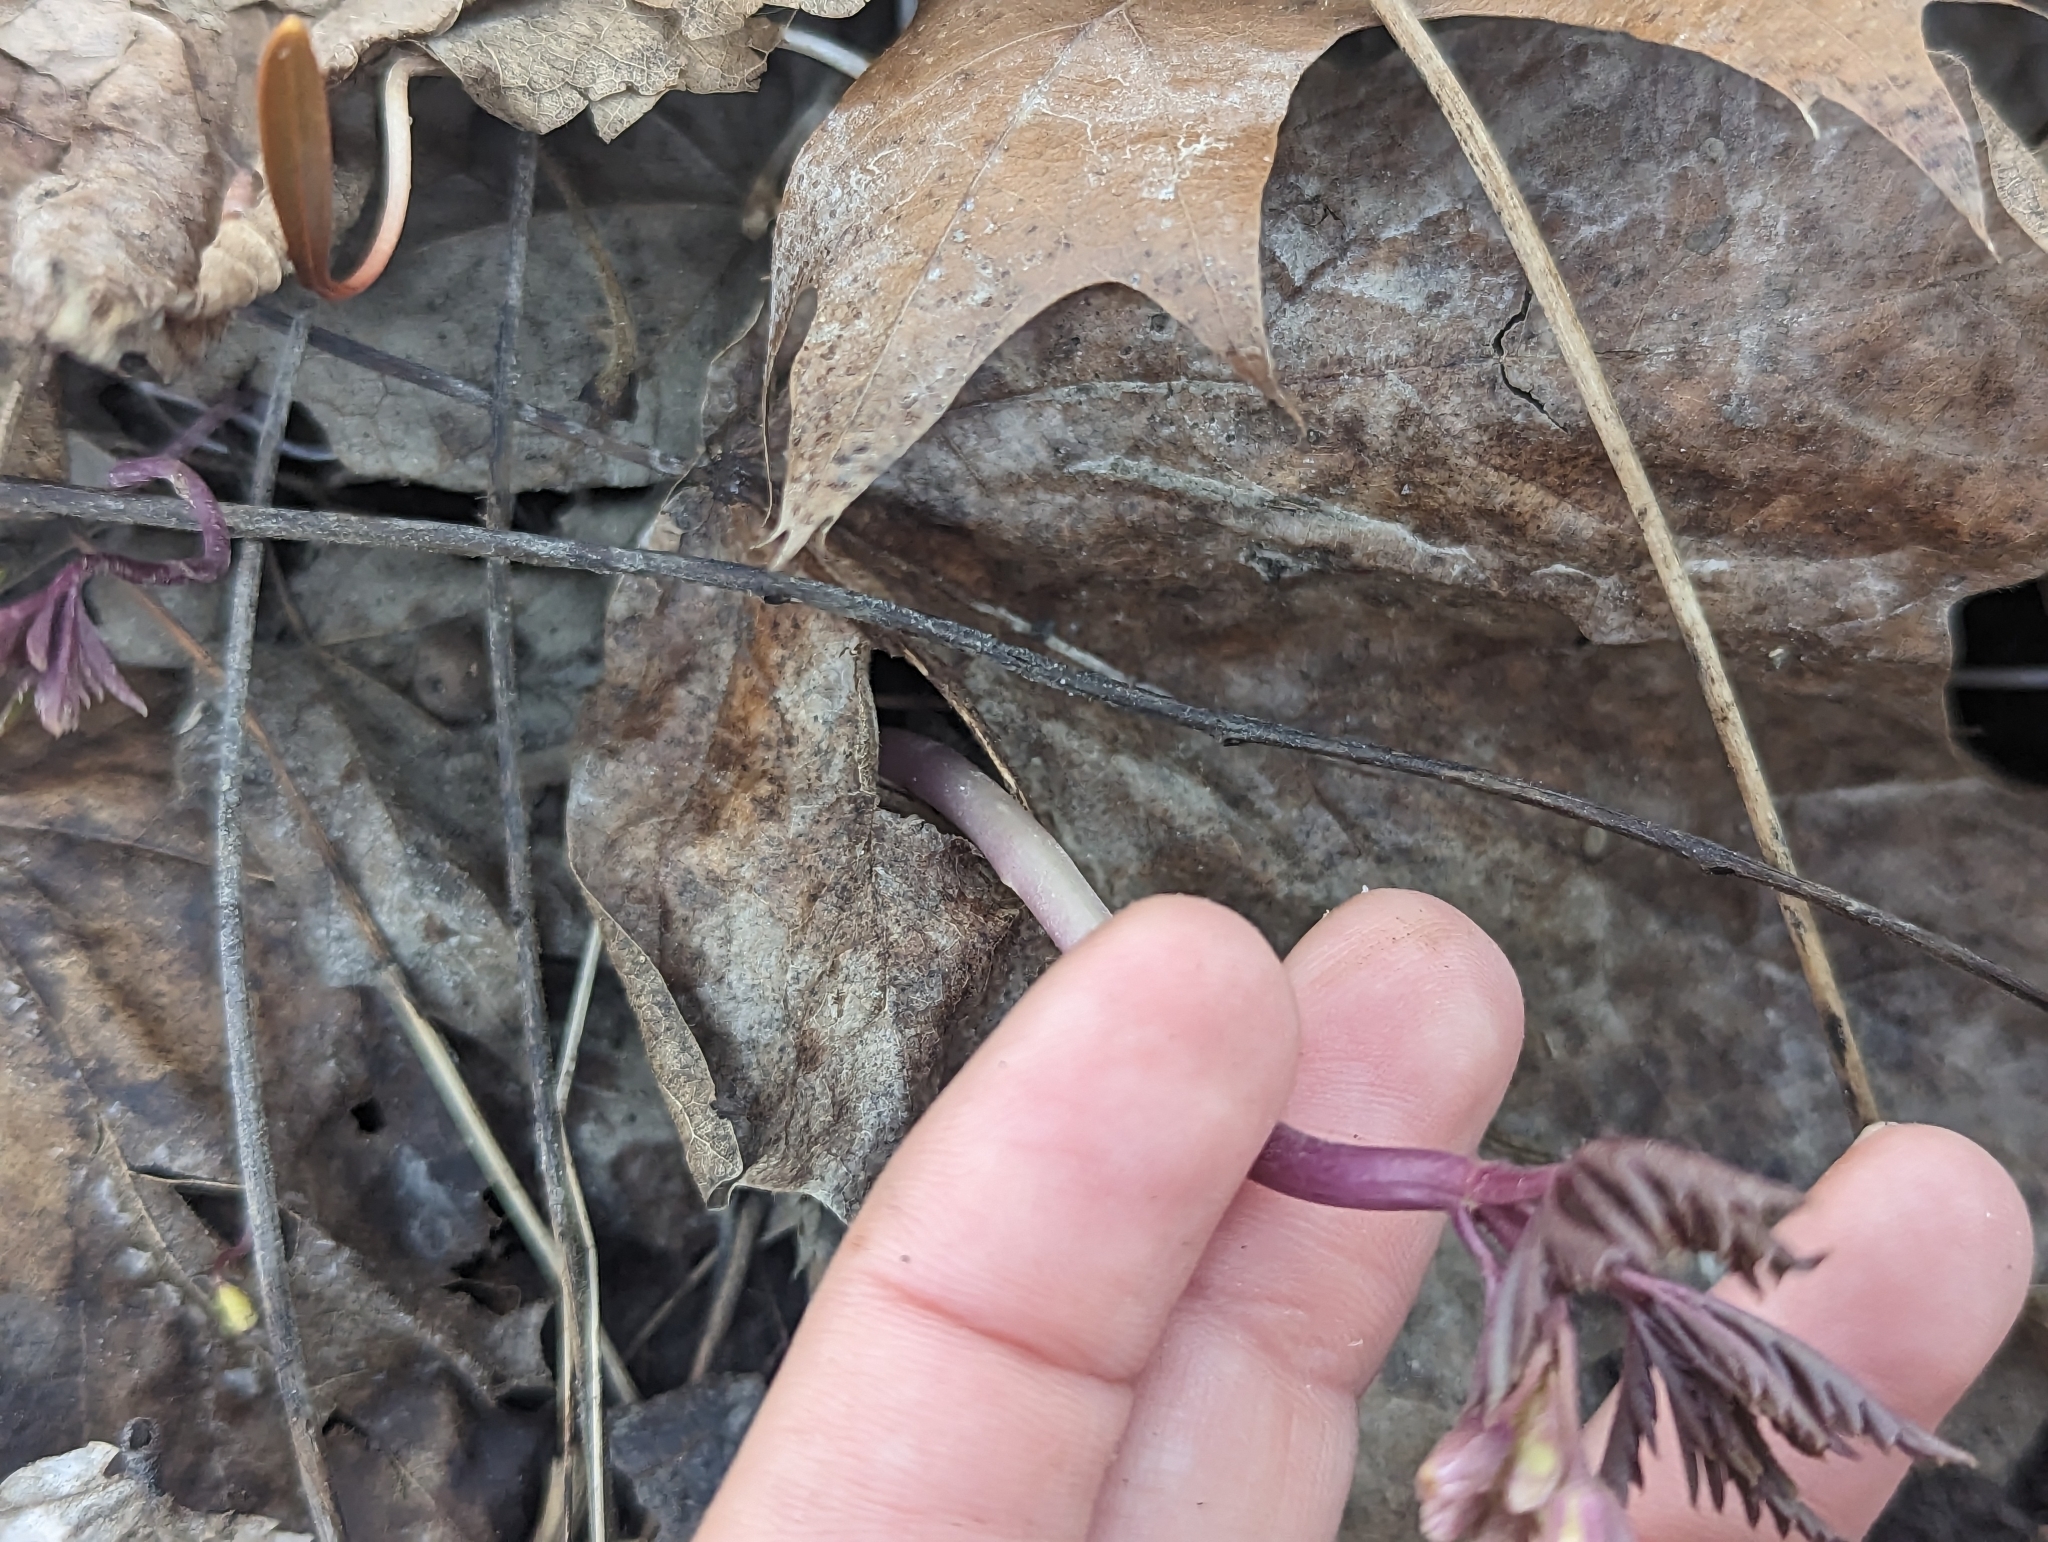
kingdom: Plantae
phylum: Tracheophyta
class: Magnoliopsida
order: Brassicales
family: Brassicaceae
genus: Cardamine
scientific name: Cardamine concatenata
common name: Cut-leaf toothcup
